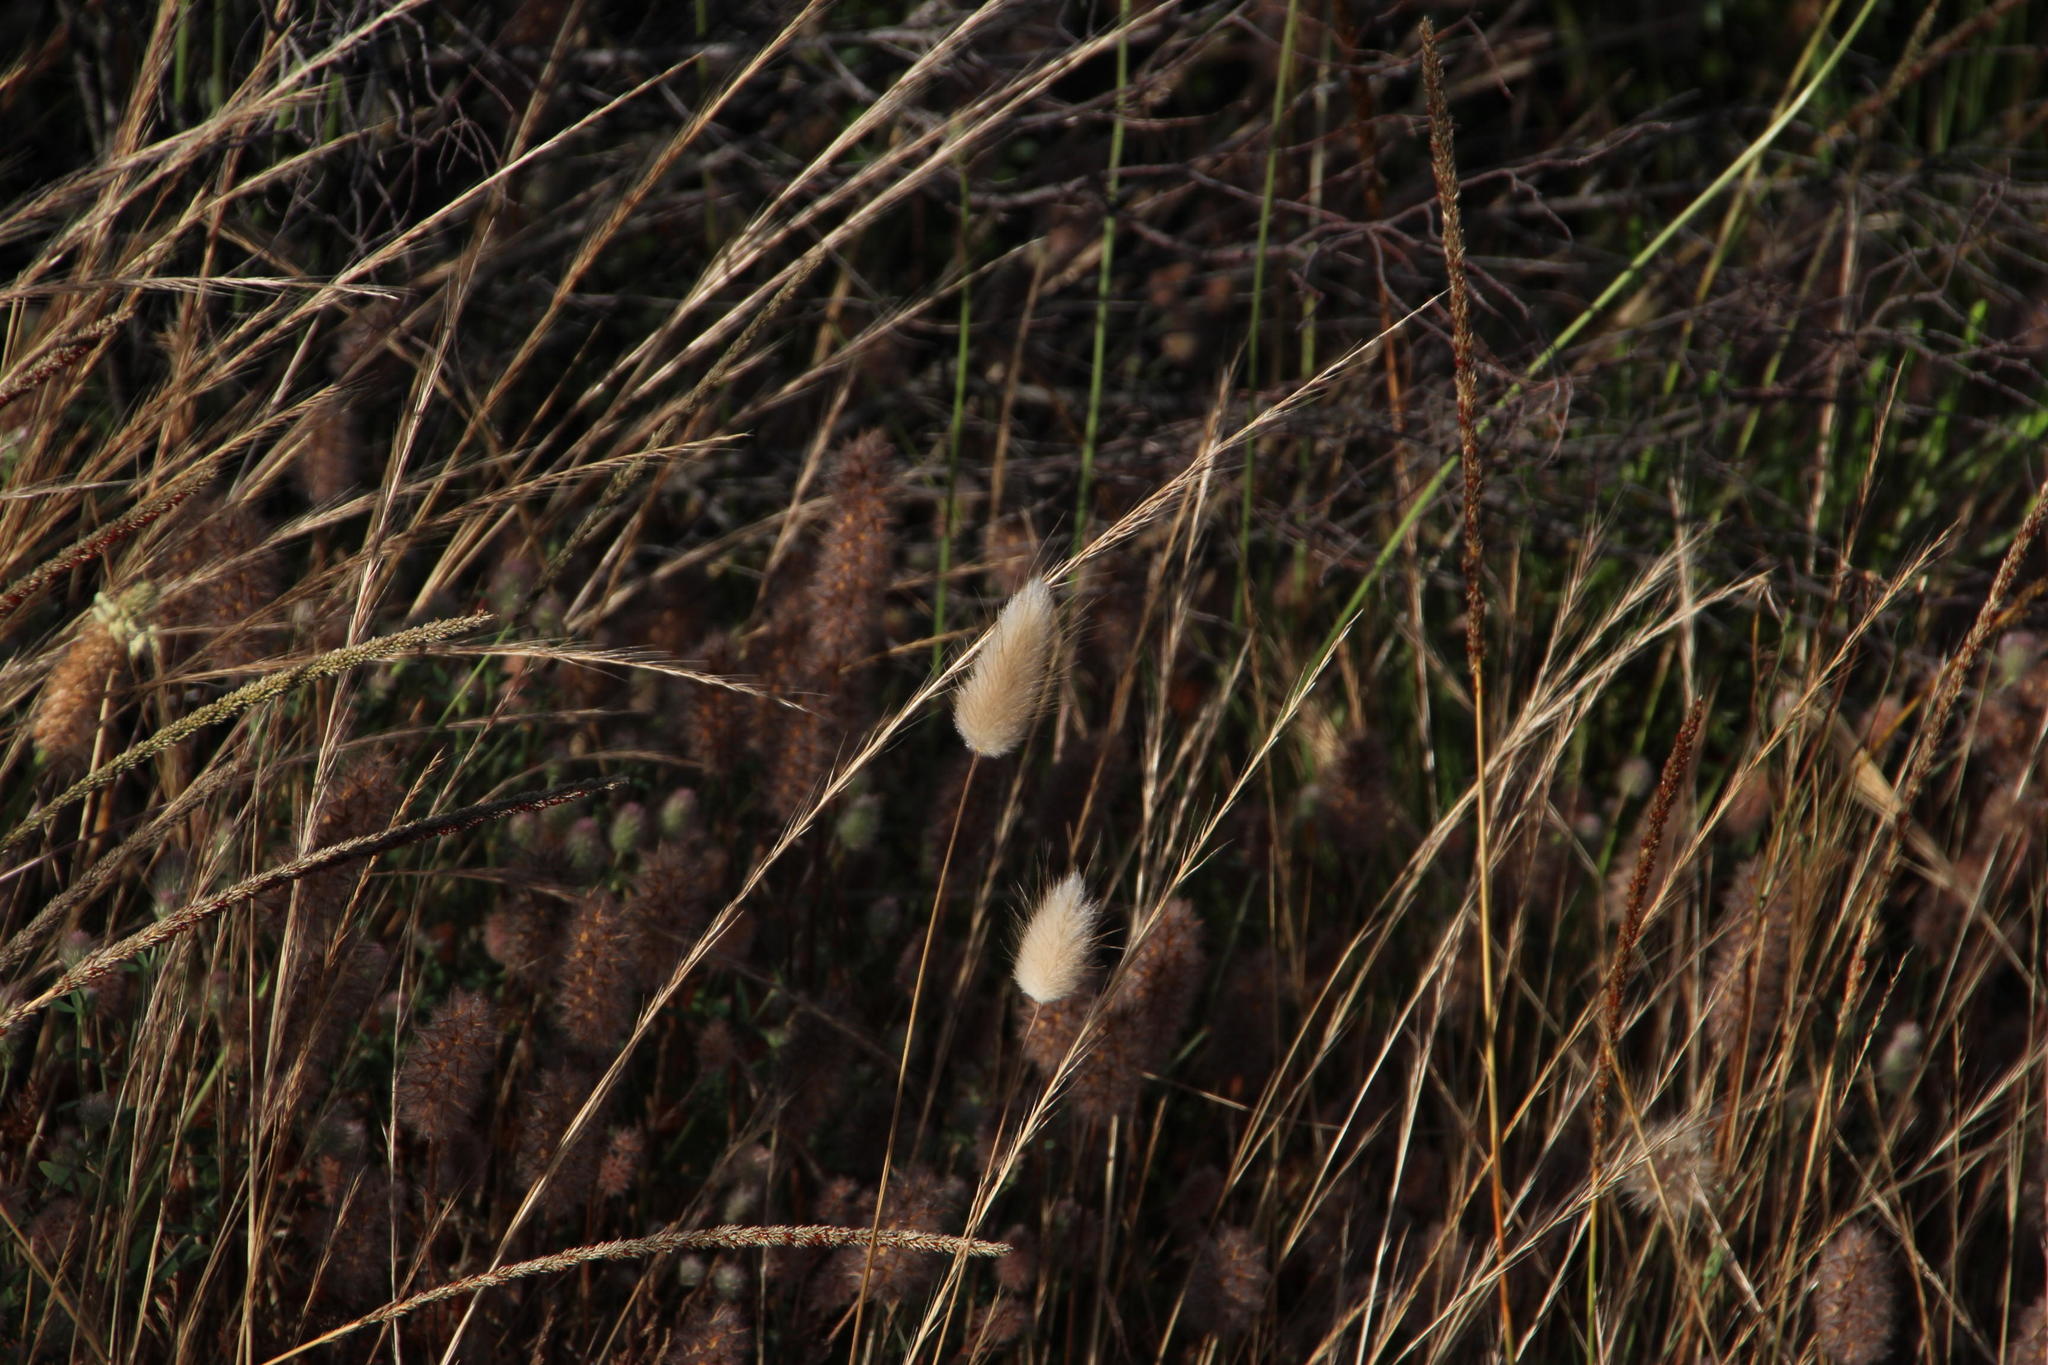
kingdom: Plantae
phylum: Tracheophyta
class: Liliopsida
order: Poales
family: Poaceae
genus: Lagurus
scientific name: Lagurus ovatus
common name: Hare's-tail
